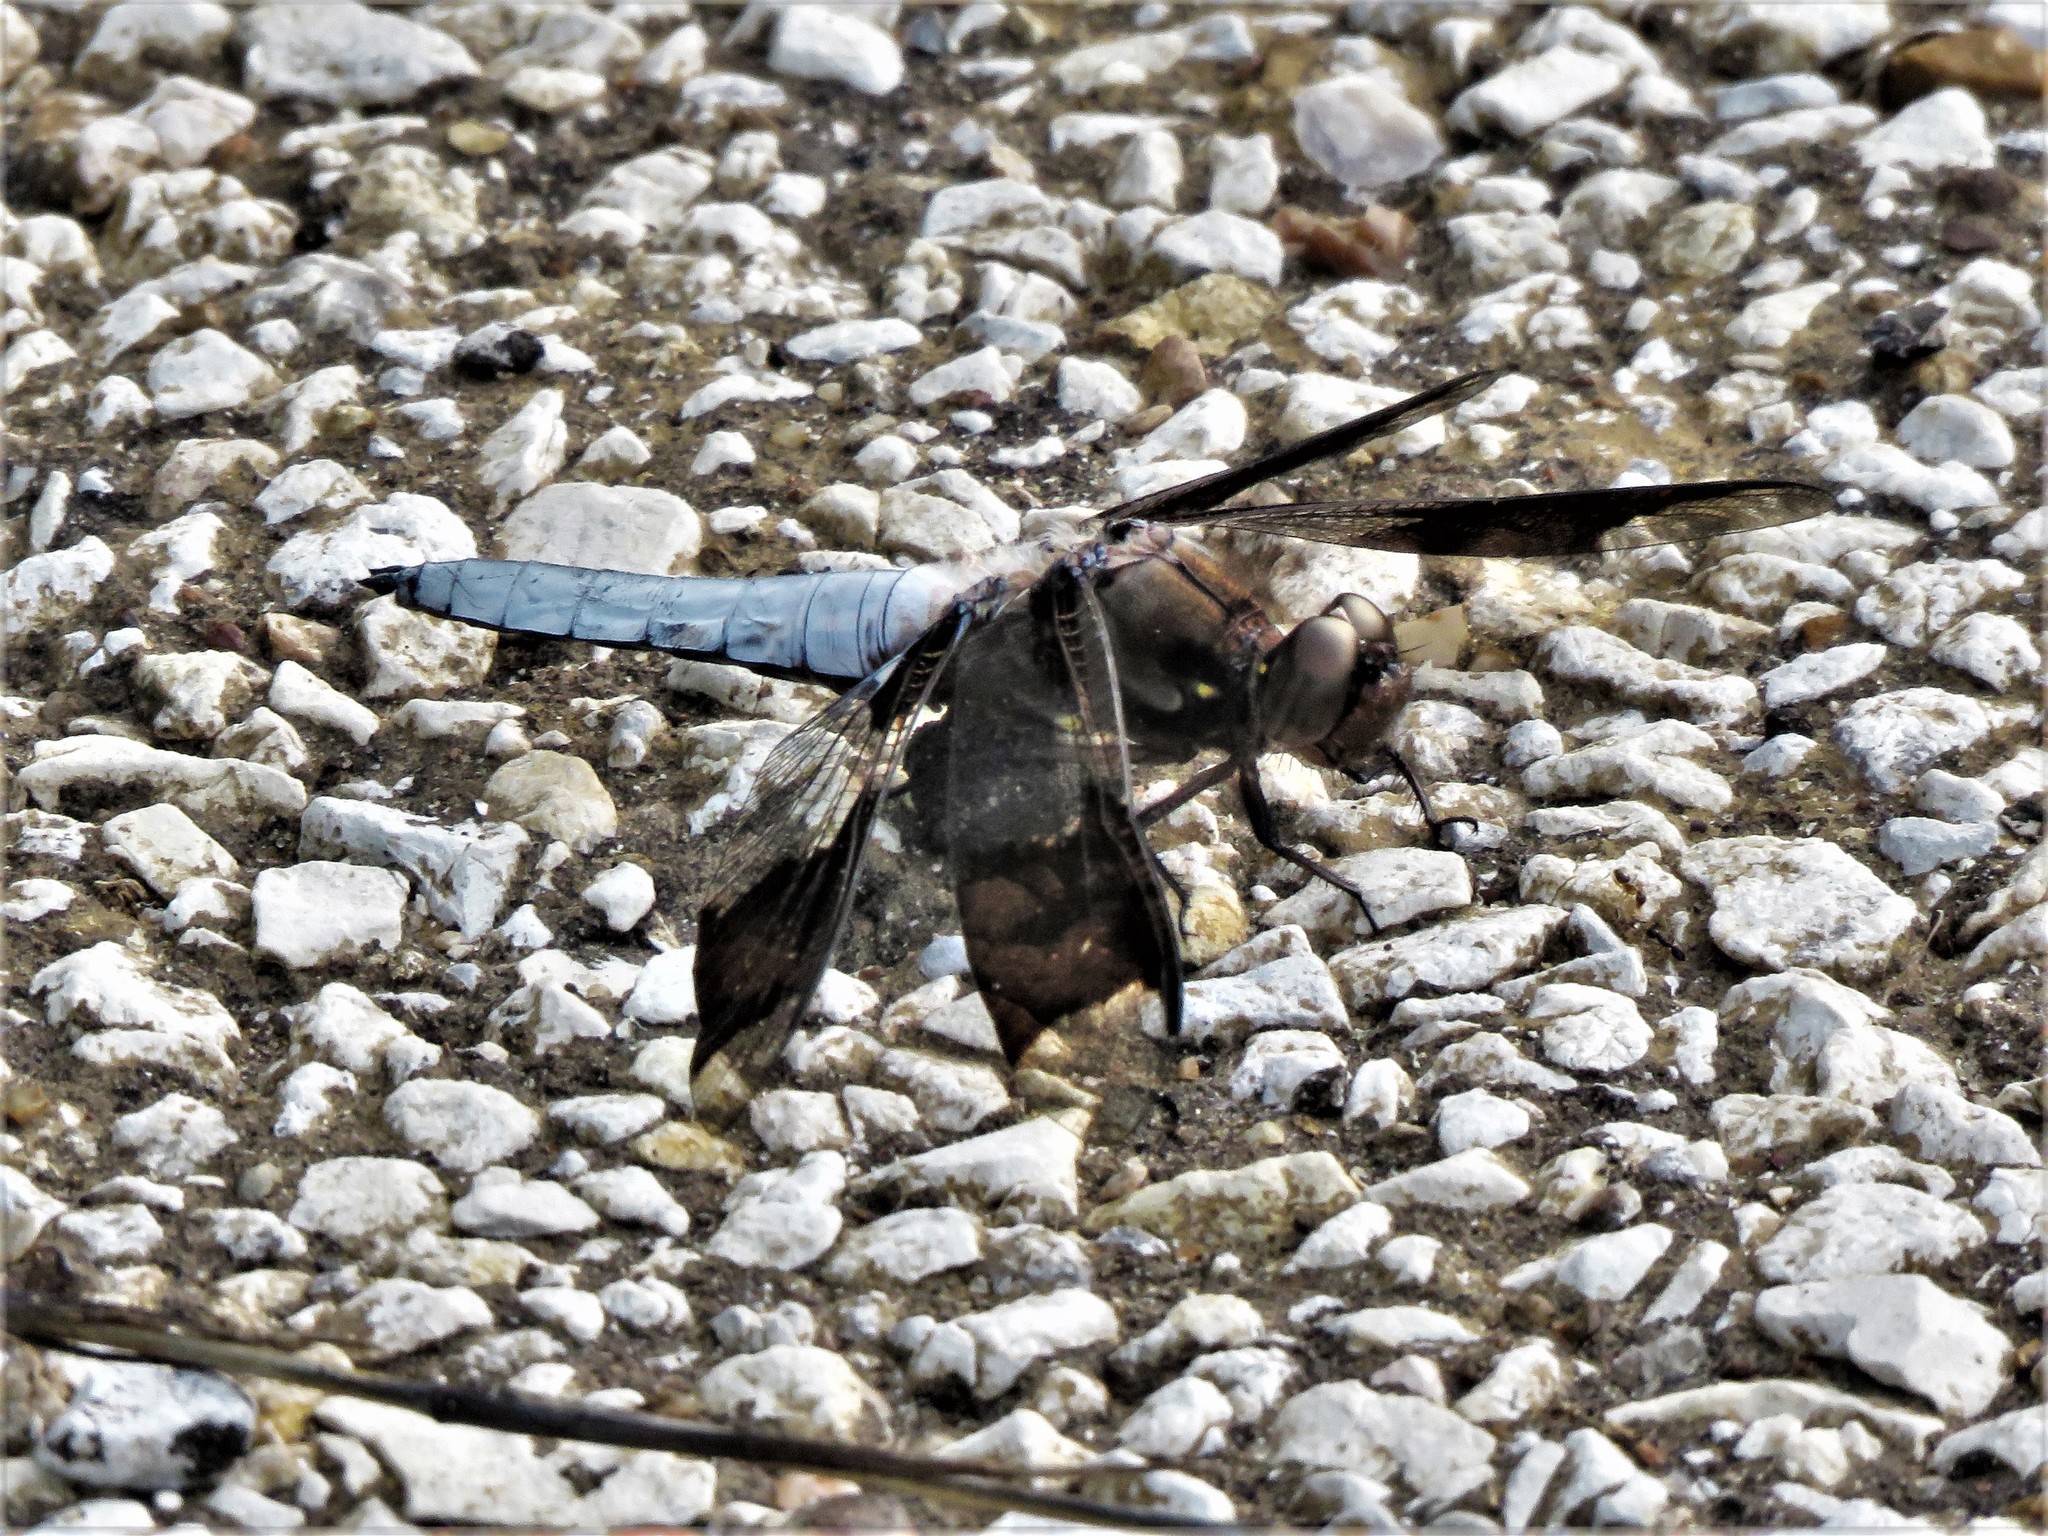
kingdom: Animalia
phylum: Arthropoda
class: Insecta
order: Odonata
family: Libellulidae
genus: Plathemis
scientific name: Plathemis lydia
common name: Common whitetail
